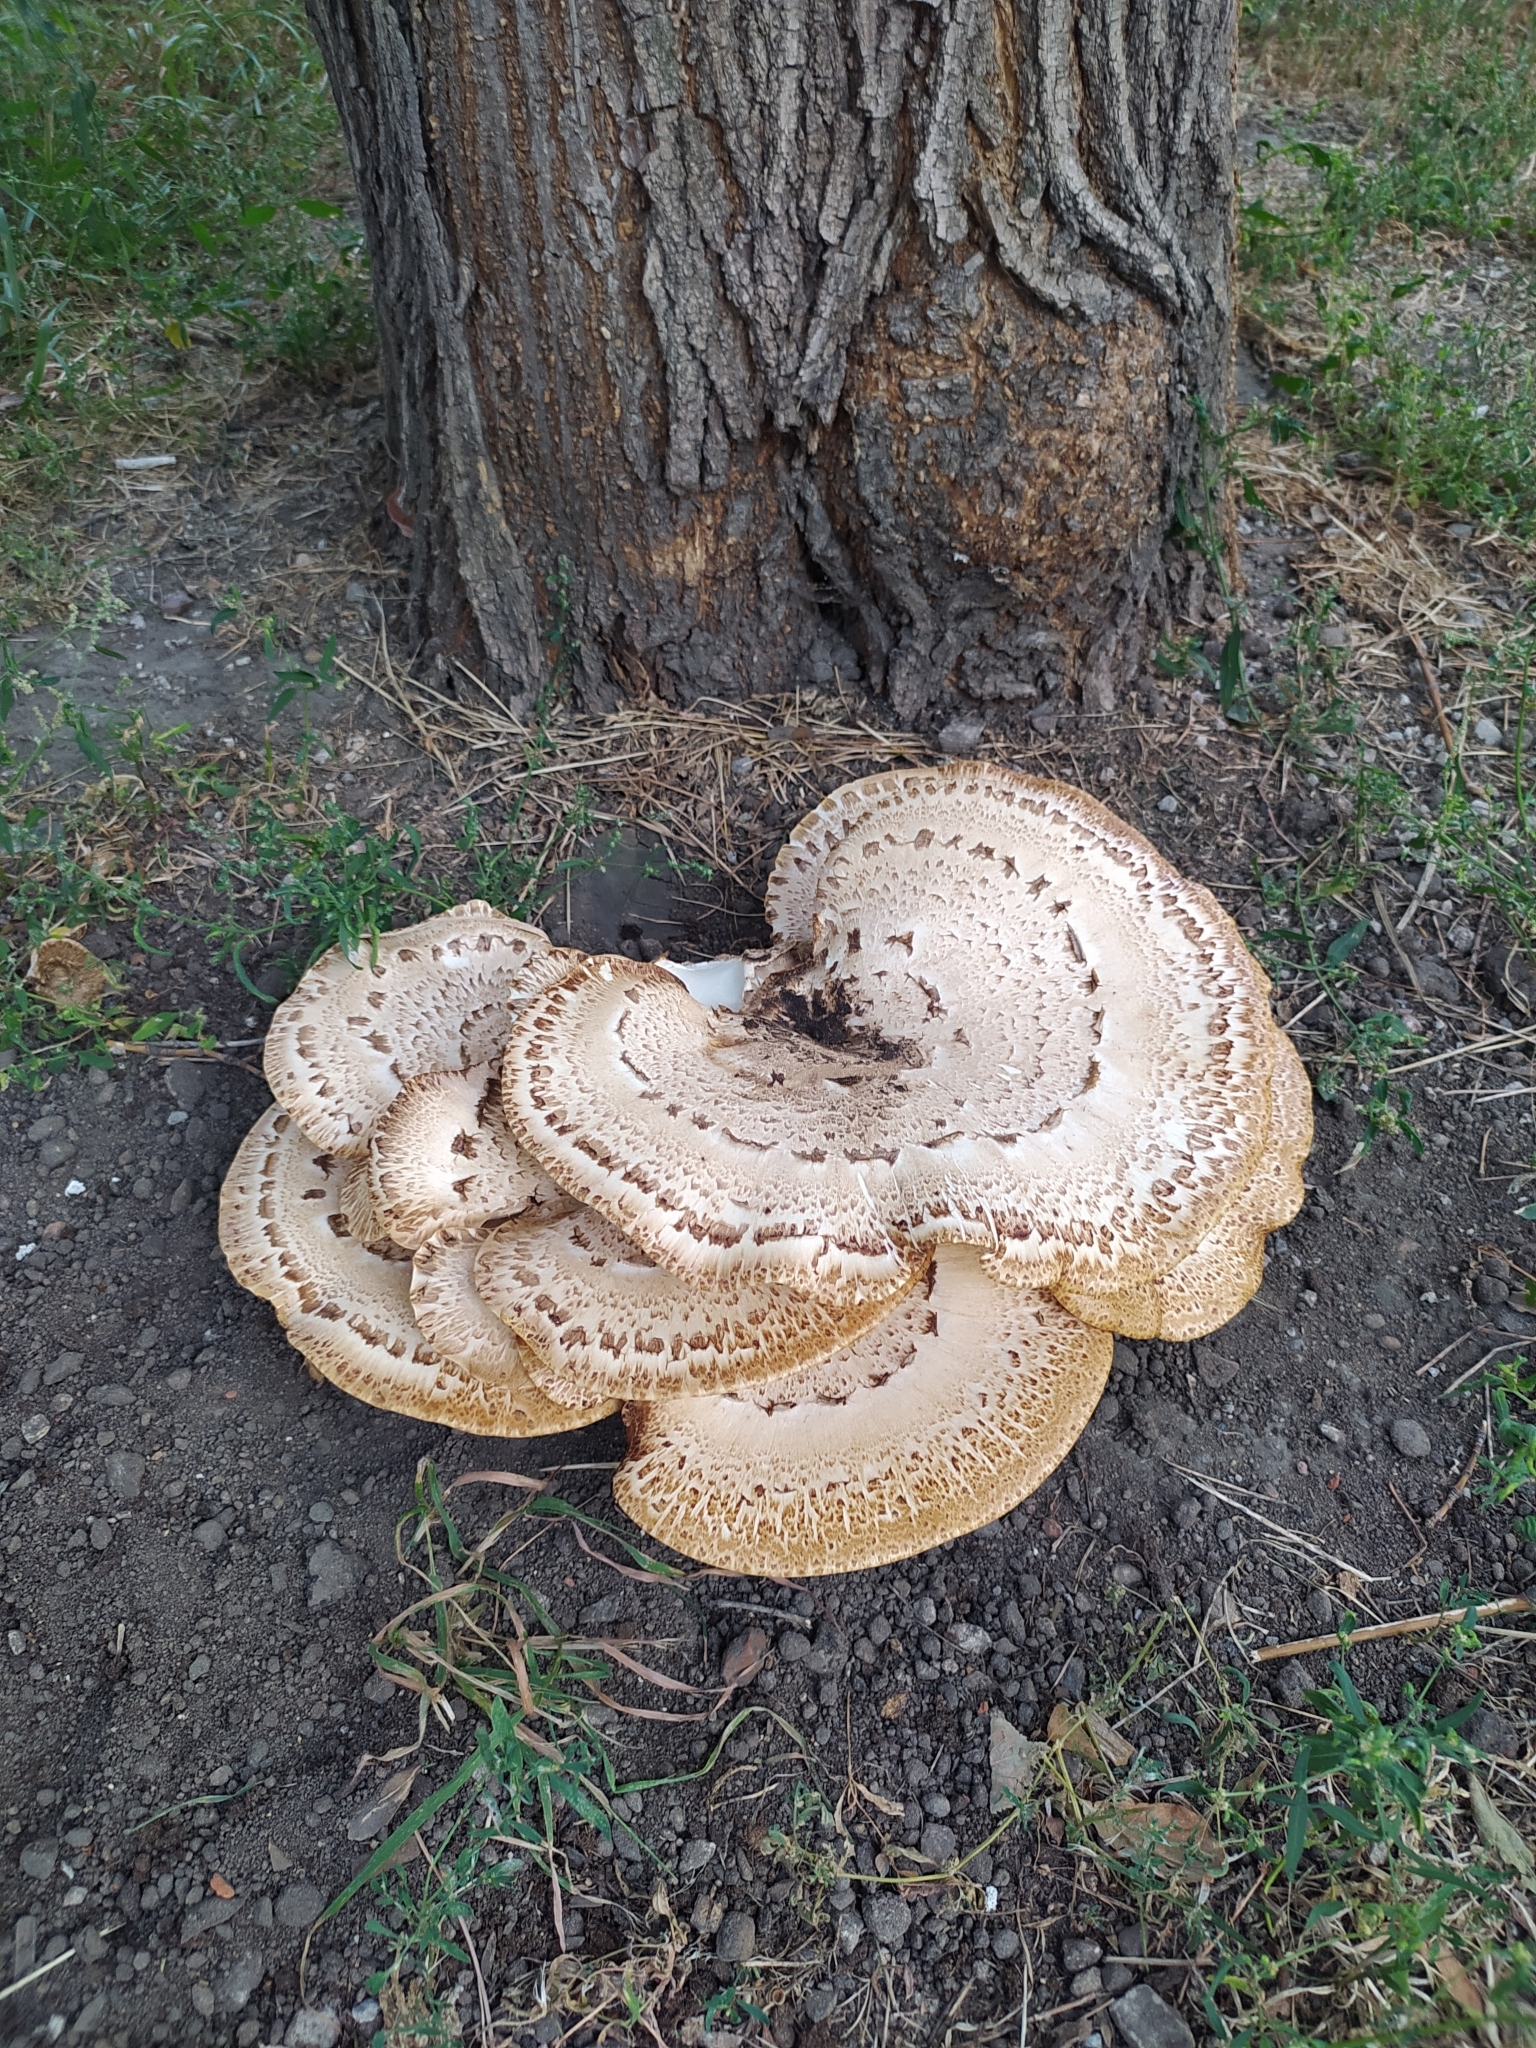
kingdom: Fungi
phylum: Basidiomycota
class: Agaricomycetes
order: Polyporales
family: Polyporaceae
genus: Cerioporus
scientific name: Cerioporus squamosus
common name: Dryad's saddle
